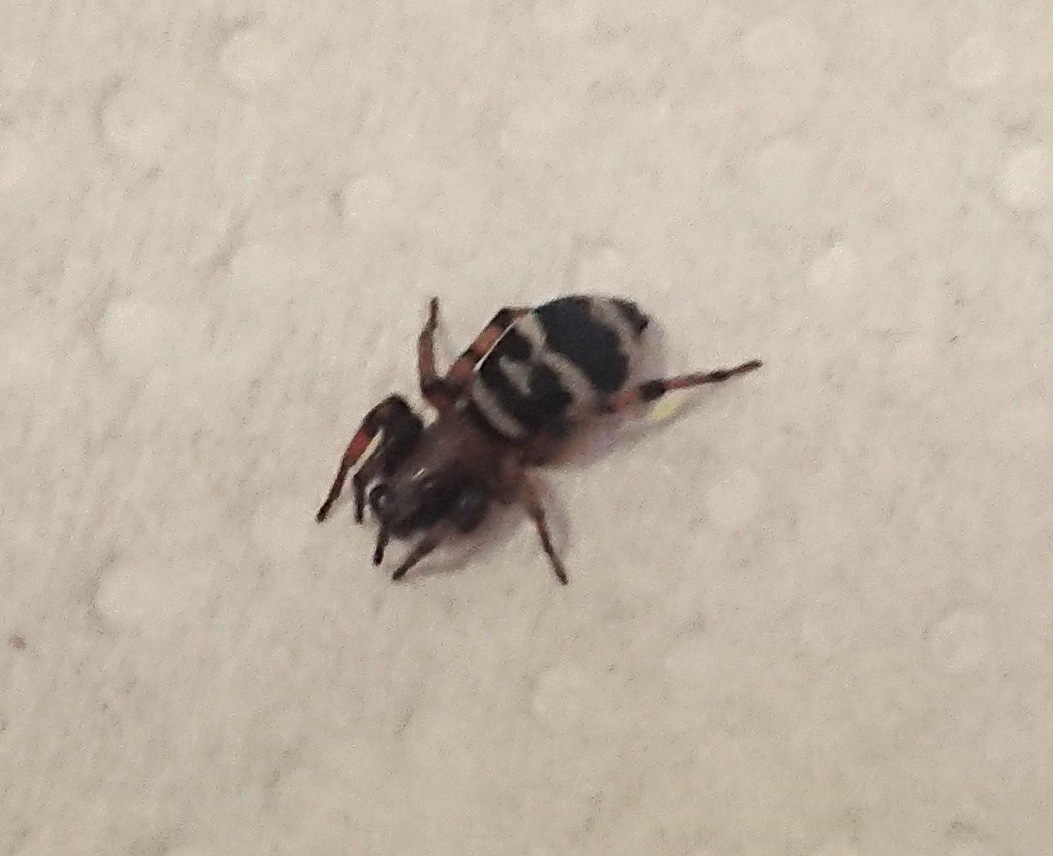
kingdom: Animalia
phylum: Arthropoda
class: Arachnida
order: Araneae
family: Gnaphosidae
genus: Sergiolus
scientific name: Sergiolus capulatus
